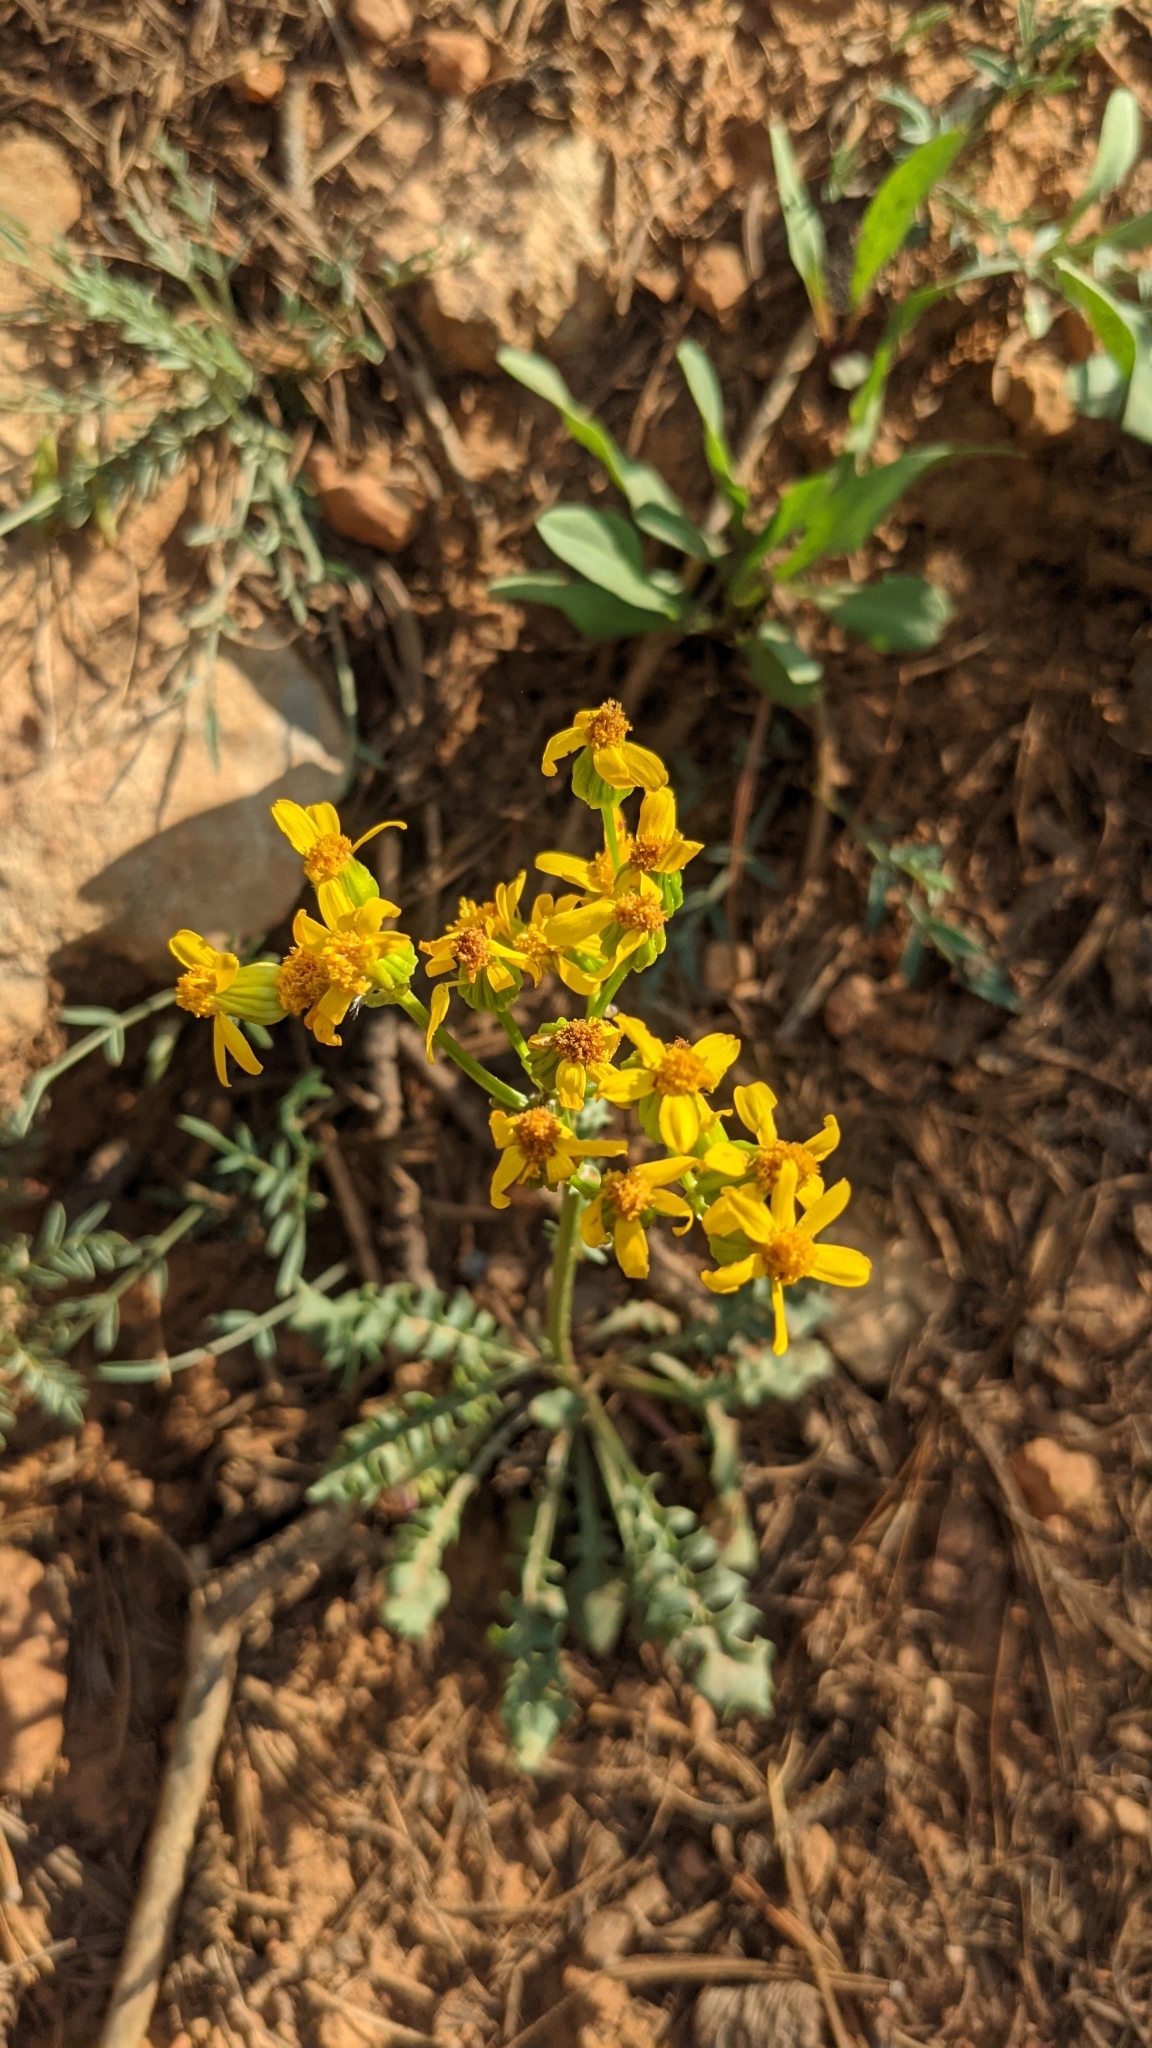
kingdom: Plantae
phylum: Tracheophyta
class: Magnoliopsida
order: Asterales
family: Asteraceae
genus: Packera
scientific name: Packera multilobata
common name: Lobe-leaf groundsel
